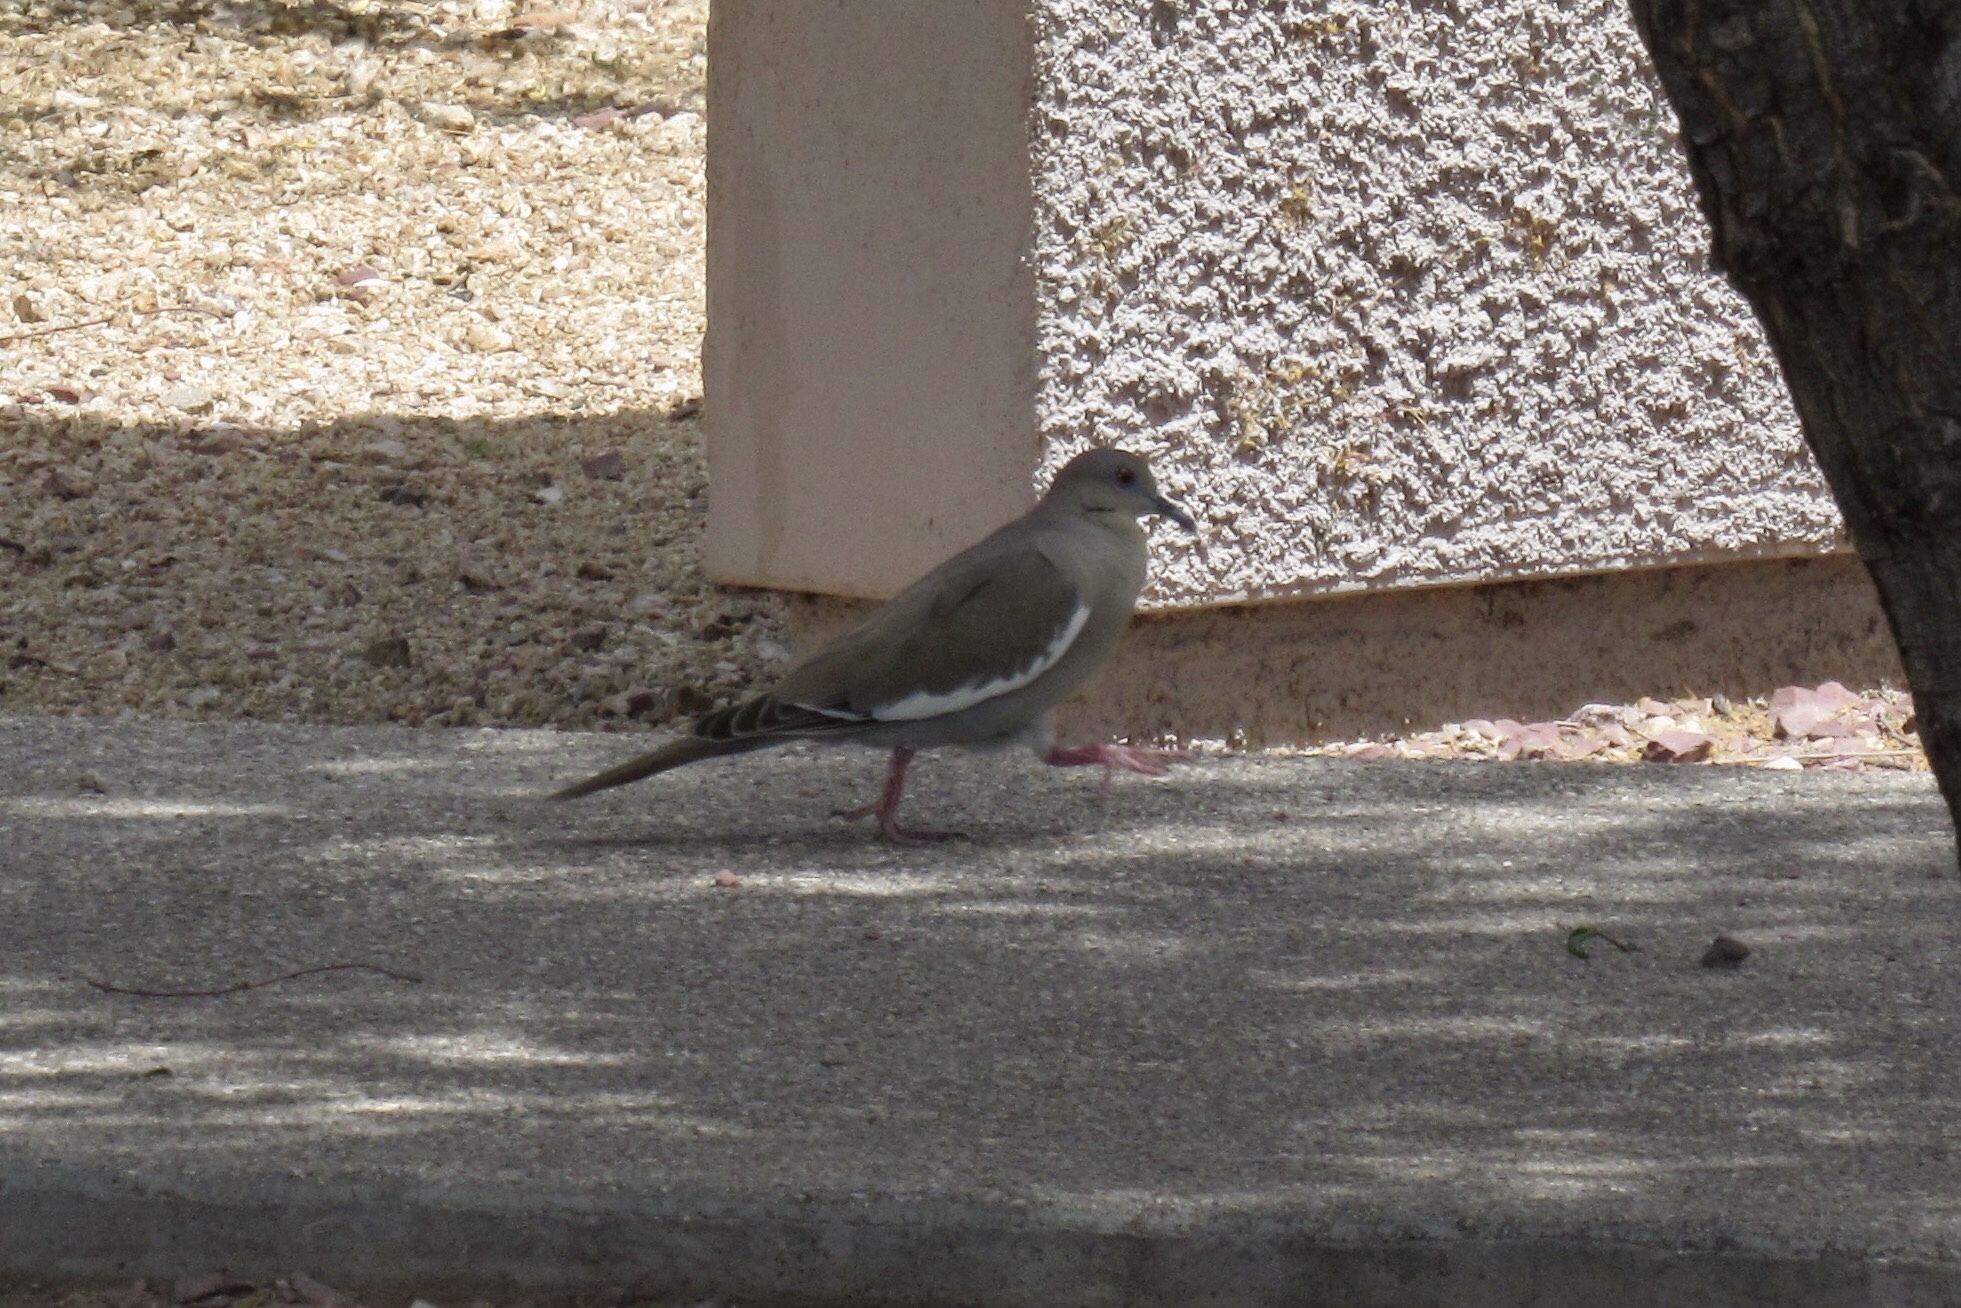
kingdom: Animalia
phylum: Chordata
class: Aves
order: Columbiformes
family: Columbidae
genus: Zenaida
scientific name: Zenaida asiatica
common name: White-winged dove
